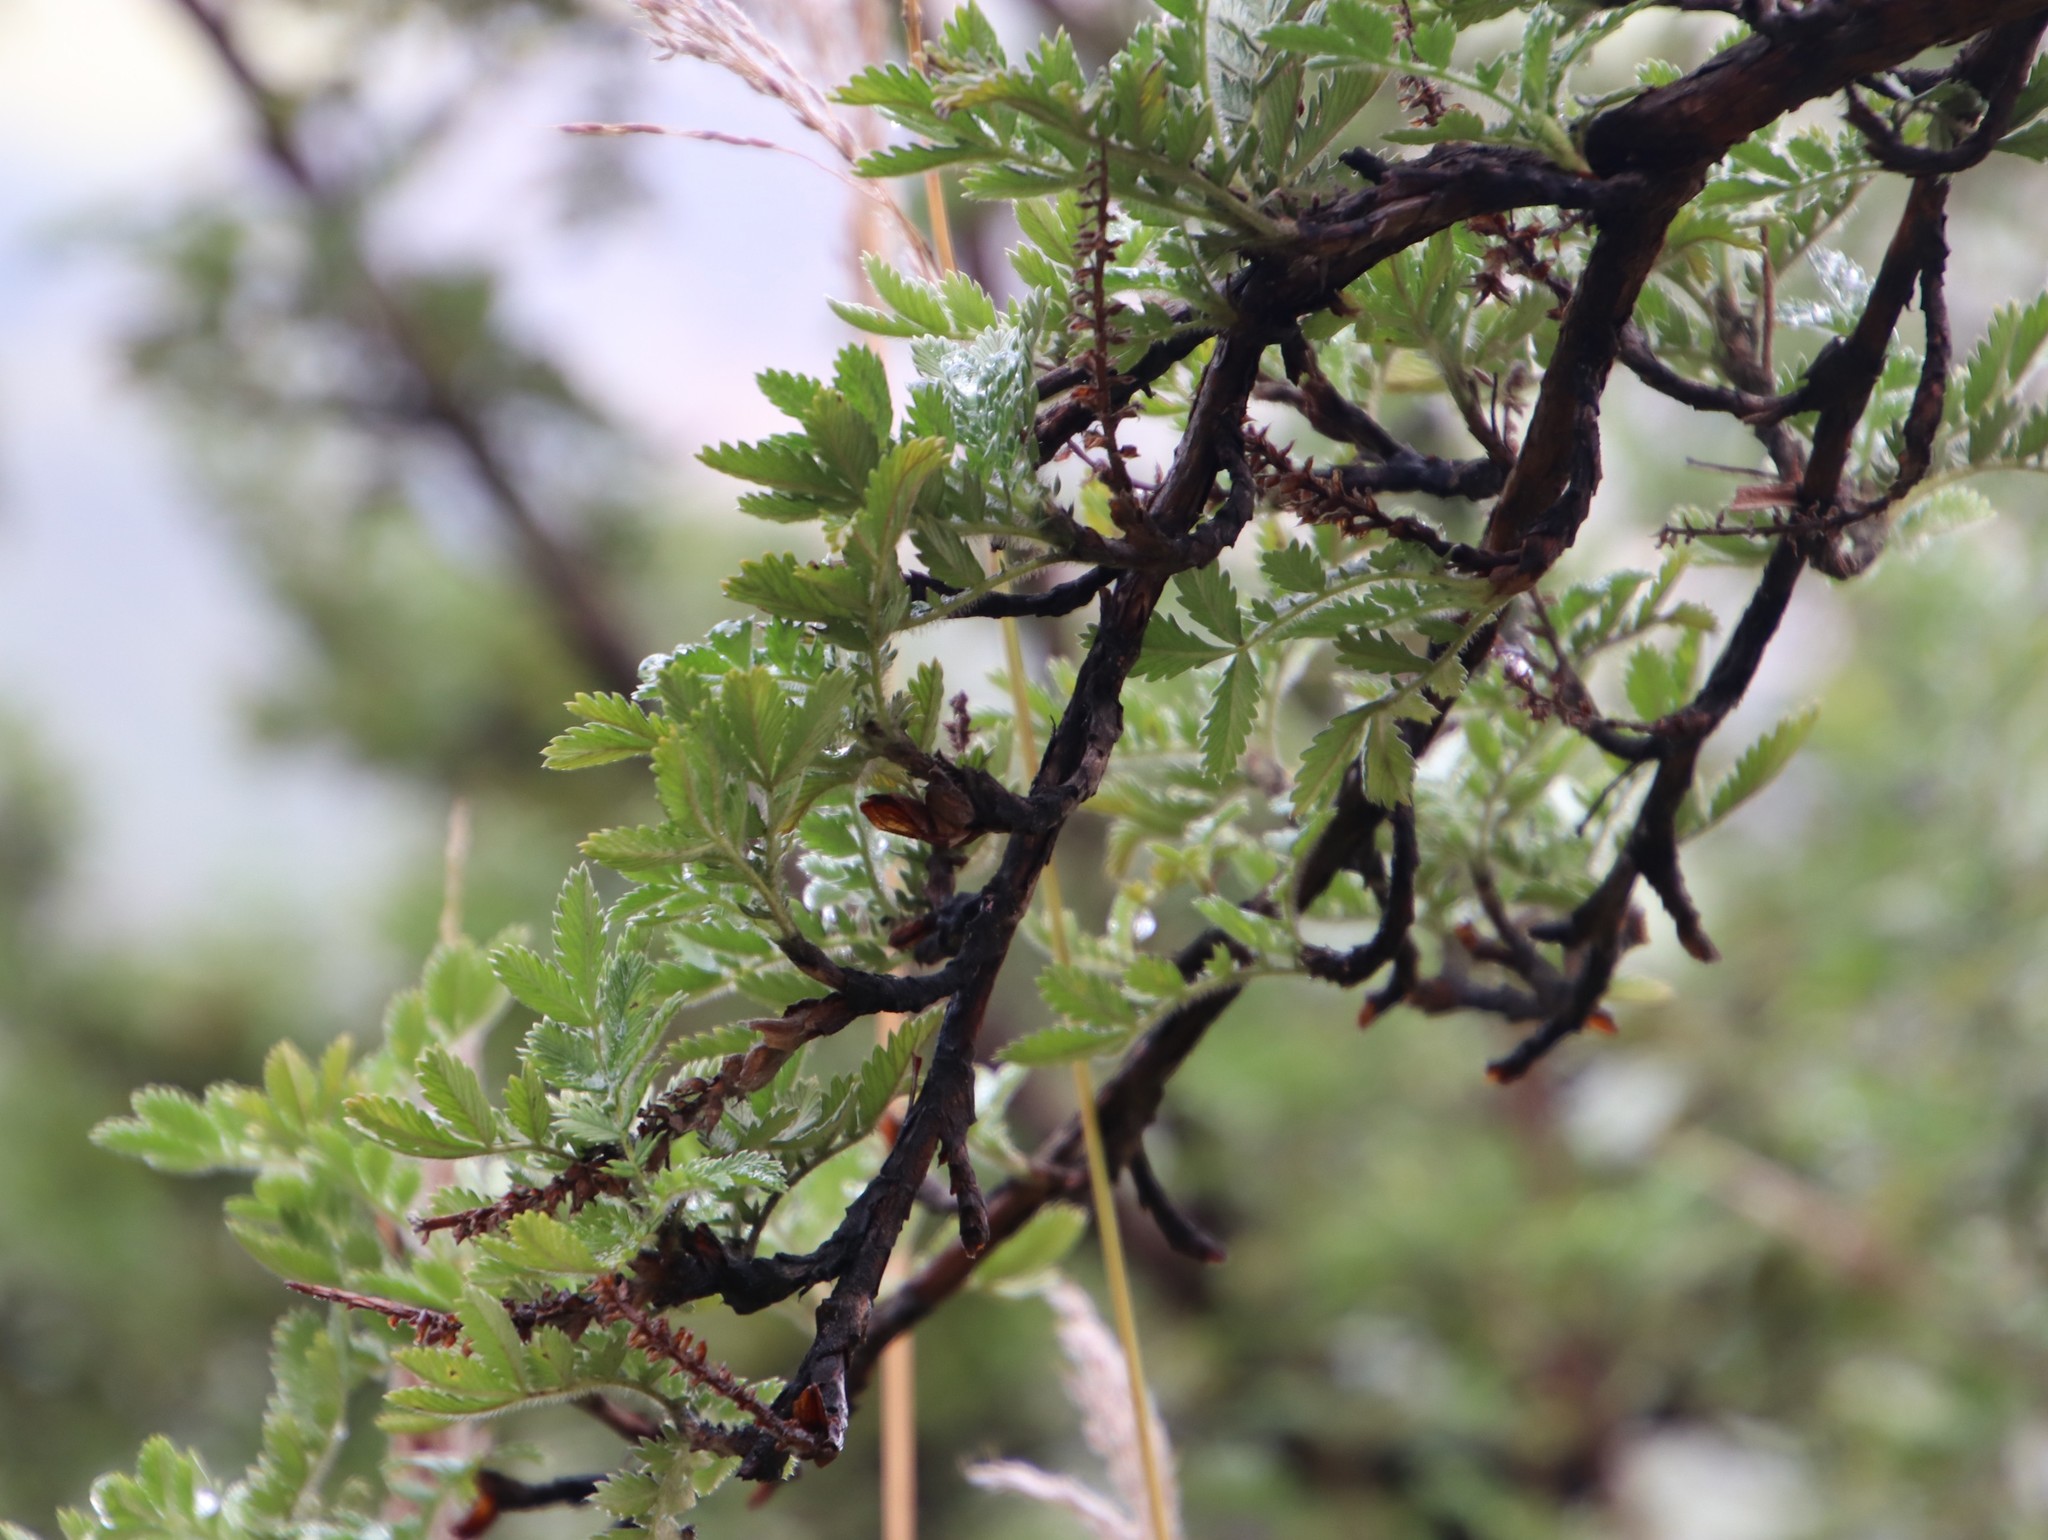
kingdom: Plantae
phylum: Tracheophyta
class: Magnoliopsida
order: Rosales
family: Rosaceae
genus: Leucosidea
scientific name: Leucosidea sericea
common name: Oldwood
